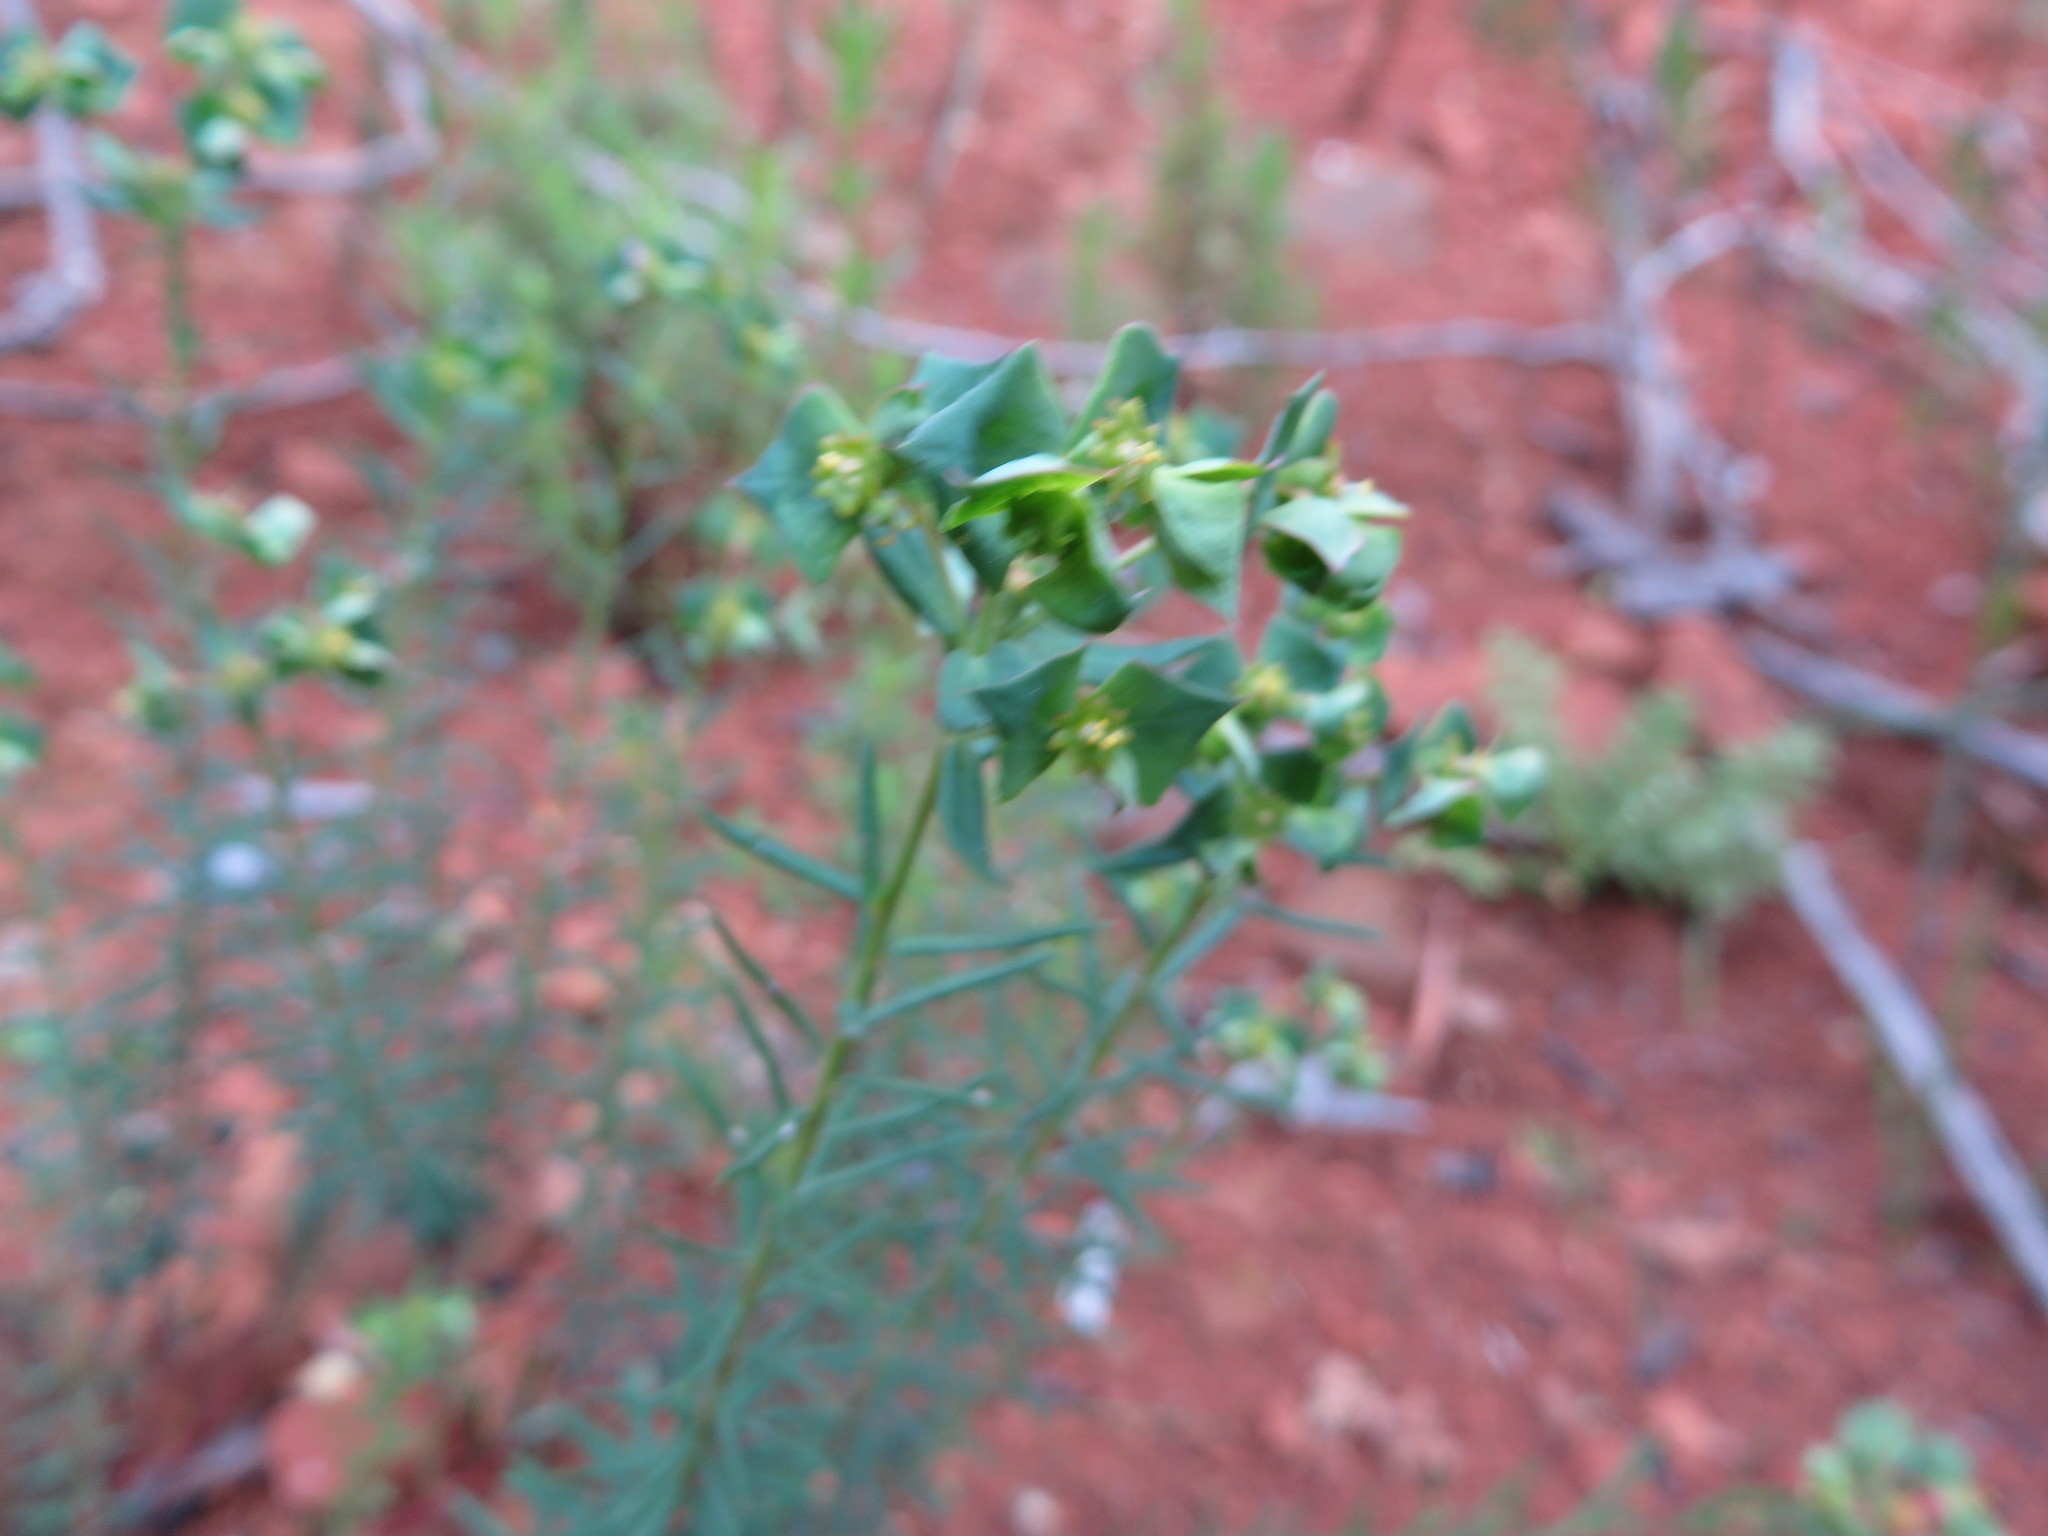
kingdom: Plantae
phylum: Tracheophyta
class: Magnoliopsida
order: Malpighiales
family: Euphorbiaceae
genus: Euphorbia
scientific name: Euphorbia genistoides
